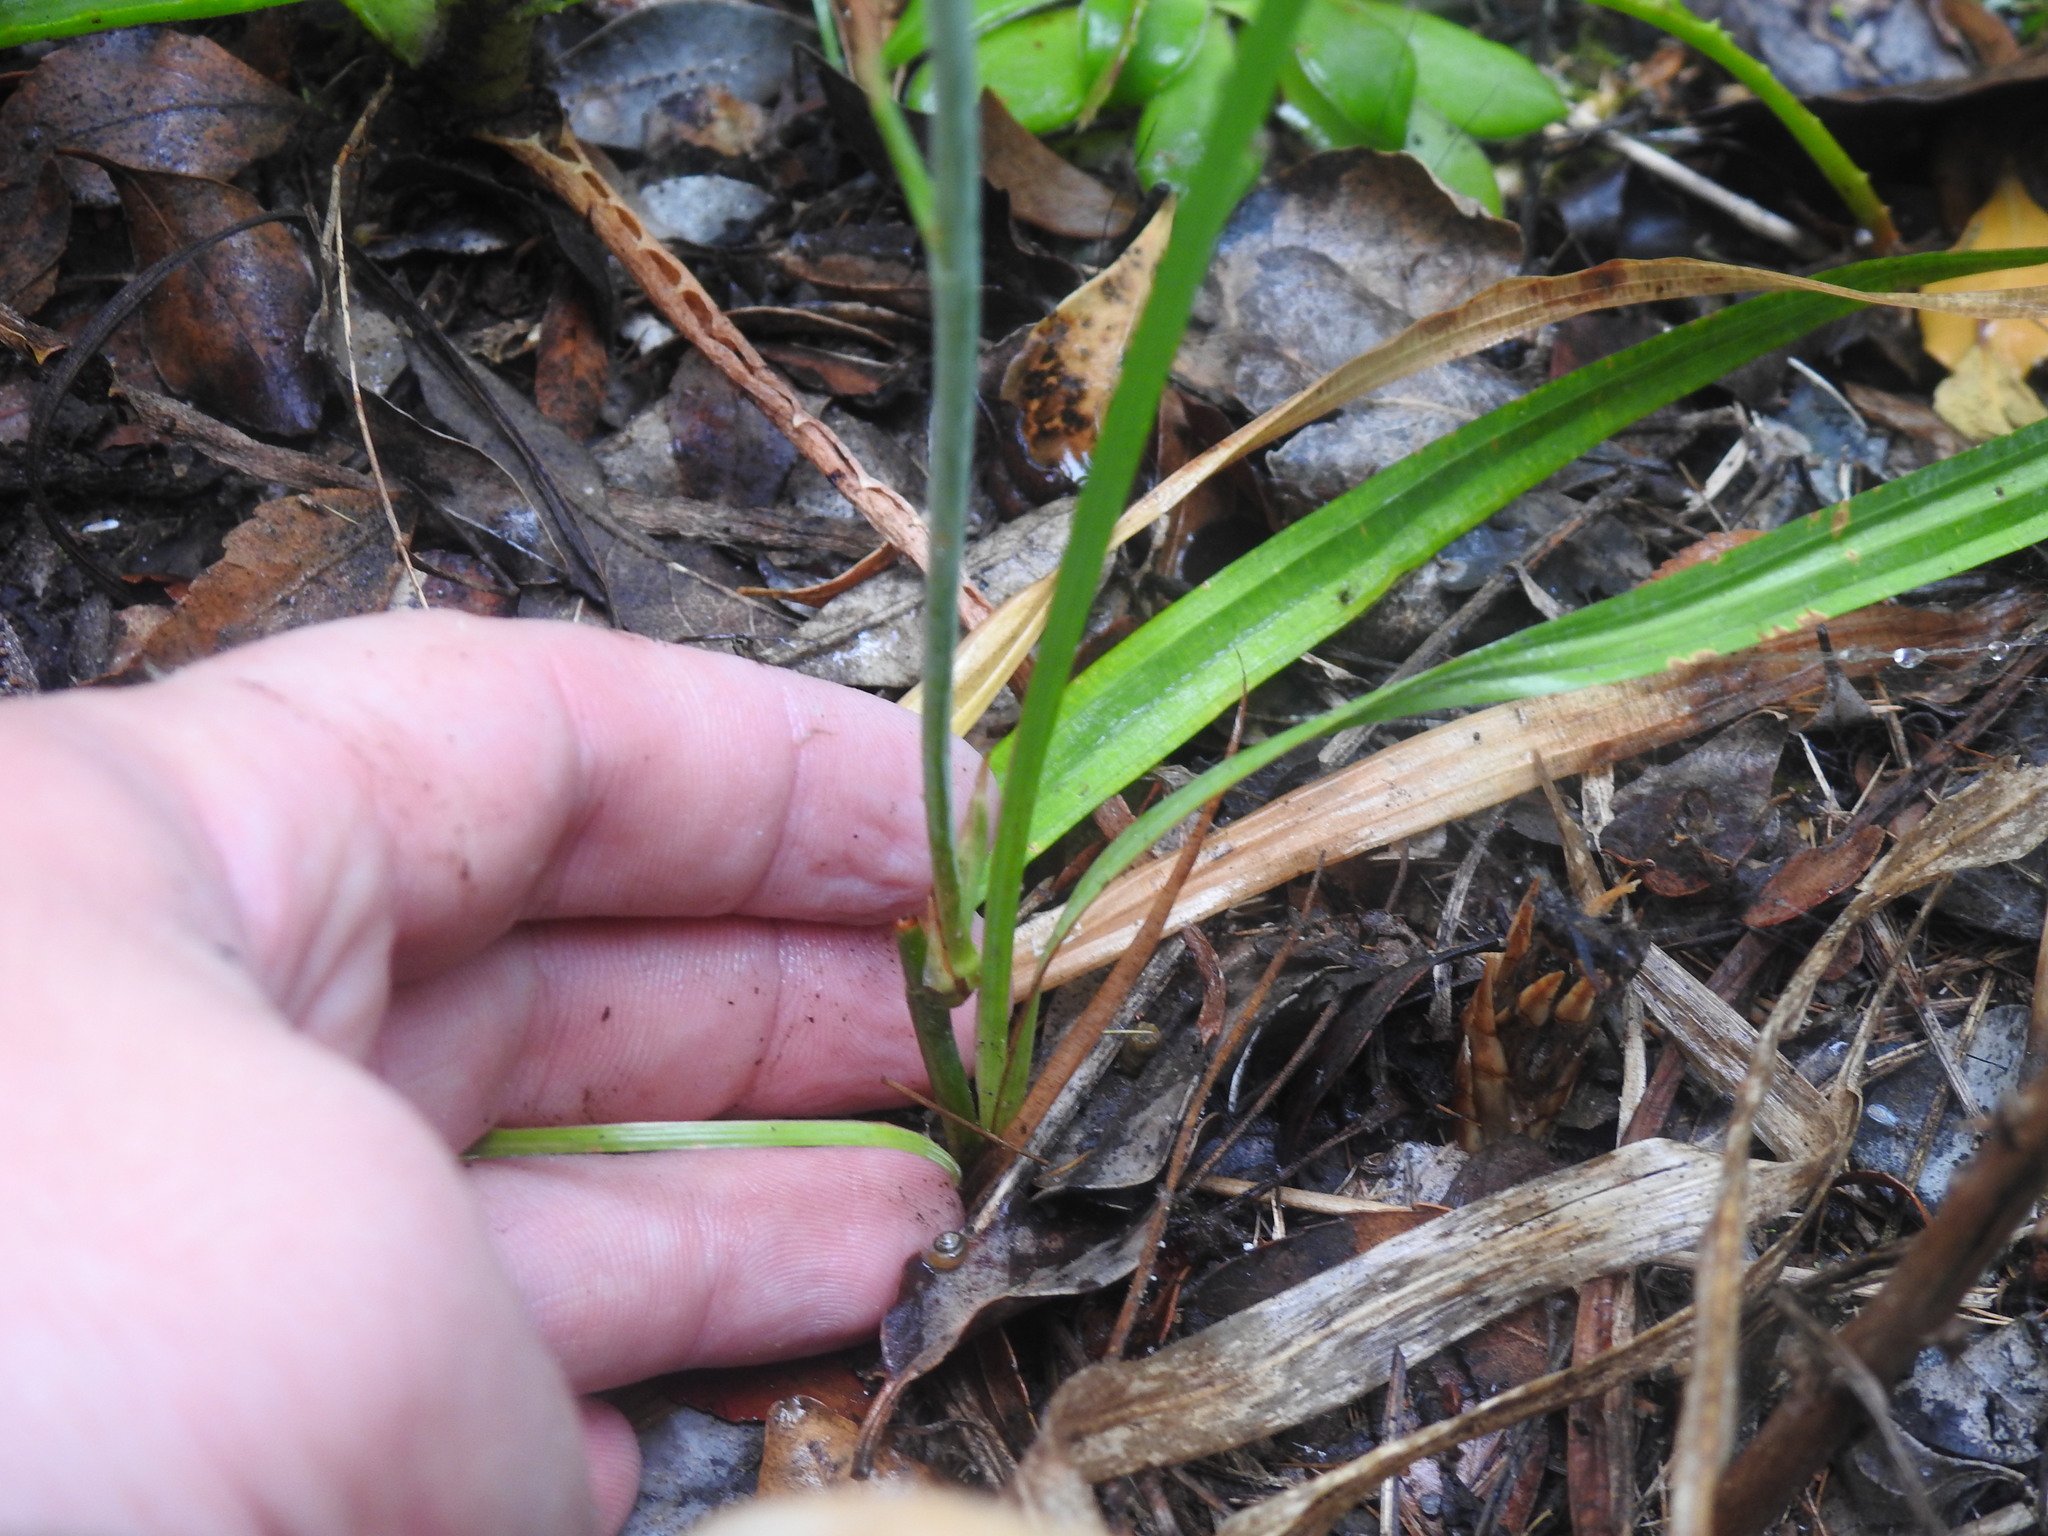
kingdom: Plantae
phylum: Tracheophyta
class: Liliopsida
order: Asparagales
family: Iridaceae
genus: Tritoniopsis
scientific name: Tritoniopsis caffra
